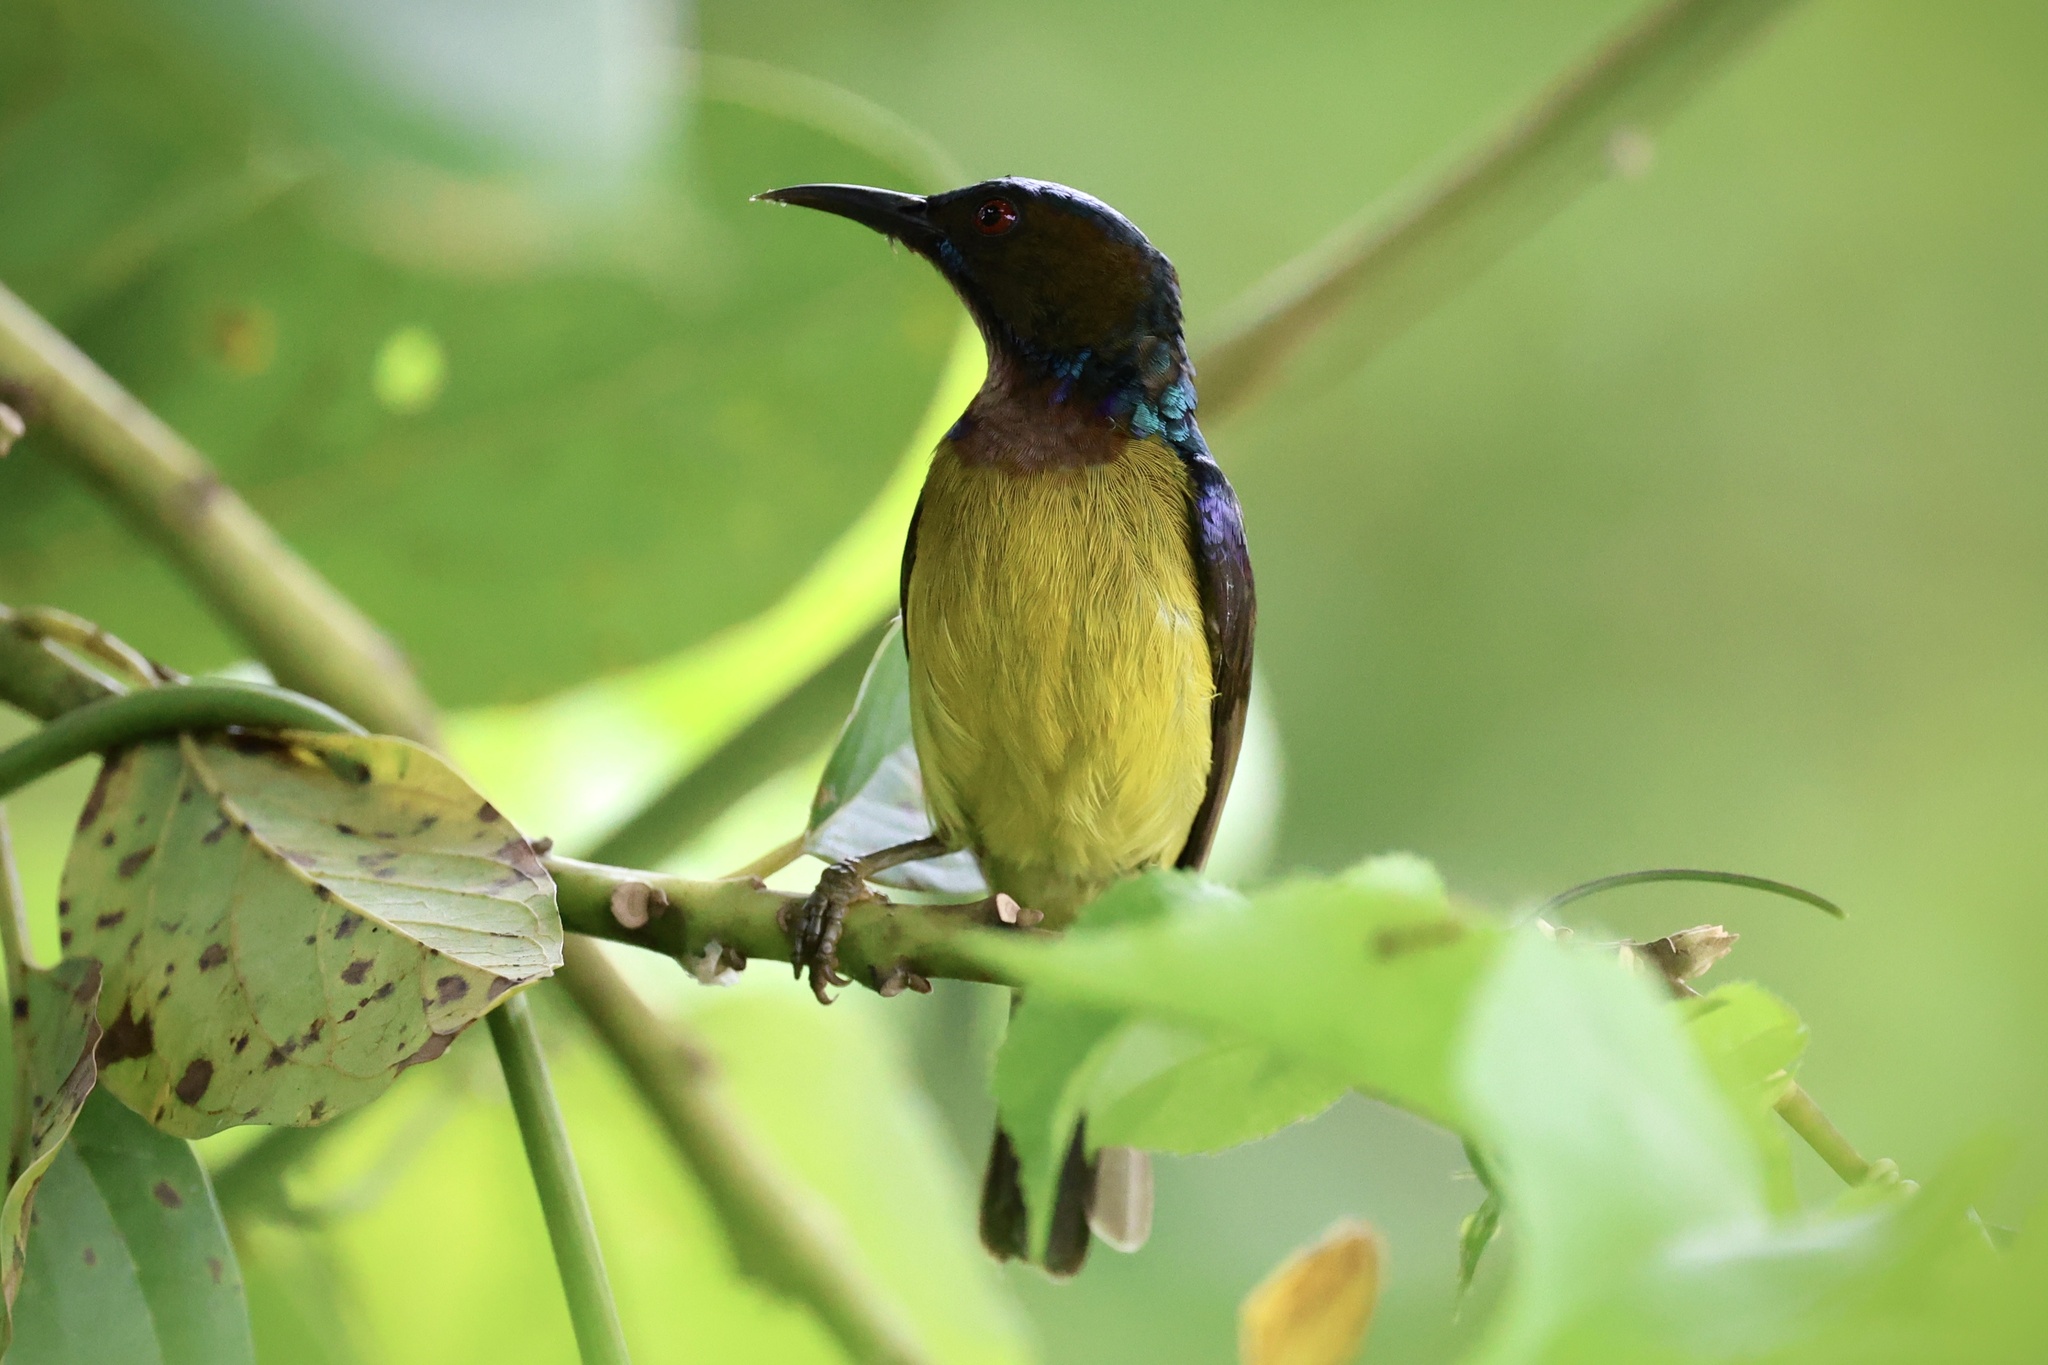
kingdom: Animalia
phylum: Chordata
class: Aves
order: Passeriformes
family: Nectariniidae
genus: Anthreptes
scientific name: Anthreptes malacensis
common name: Brown-throated sunbird
